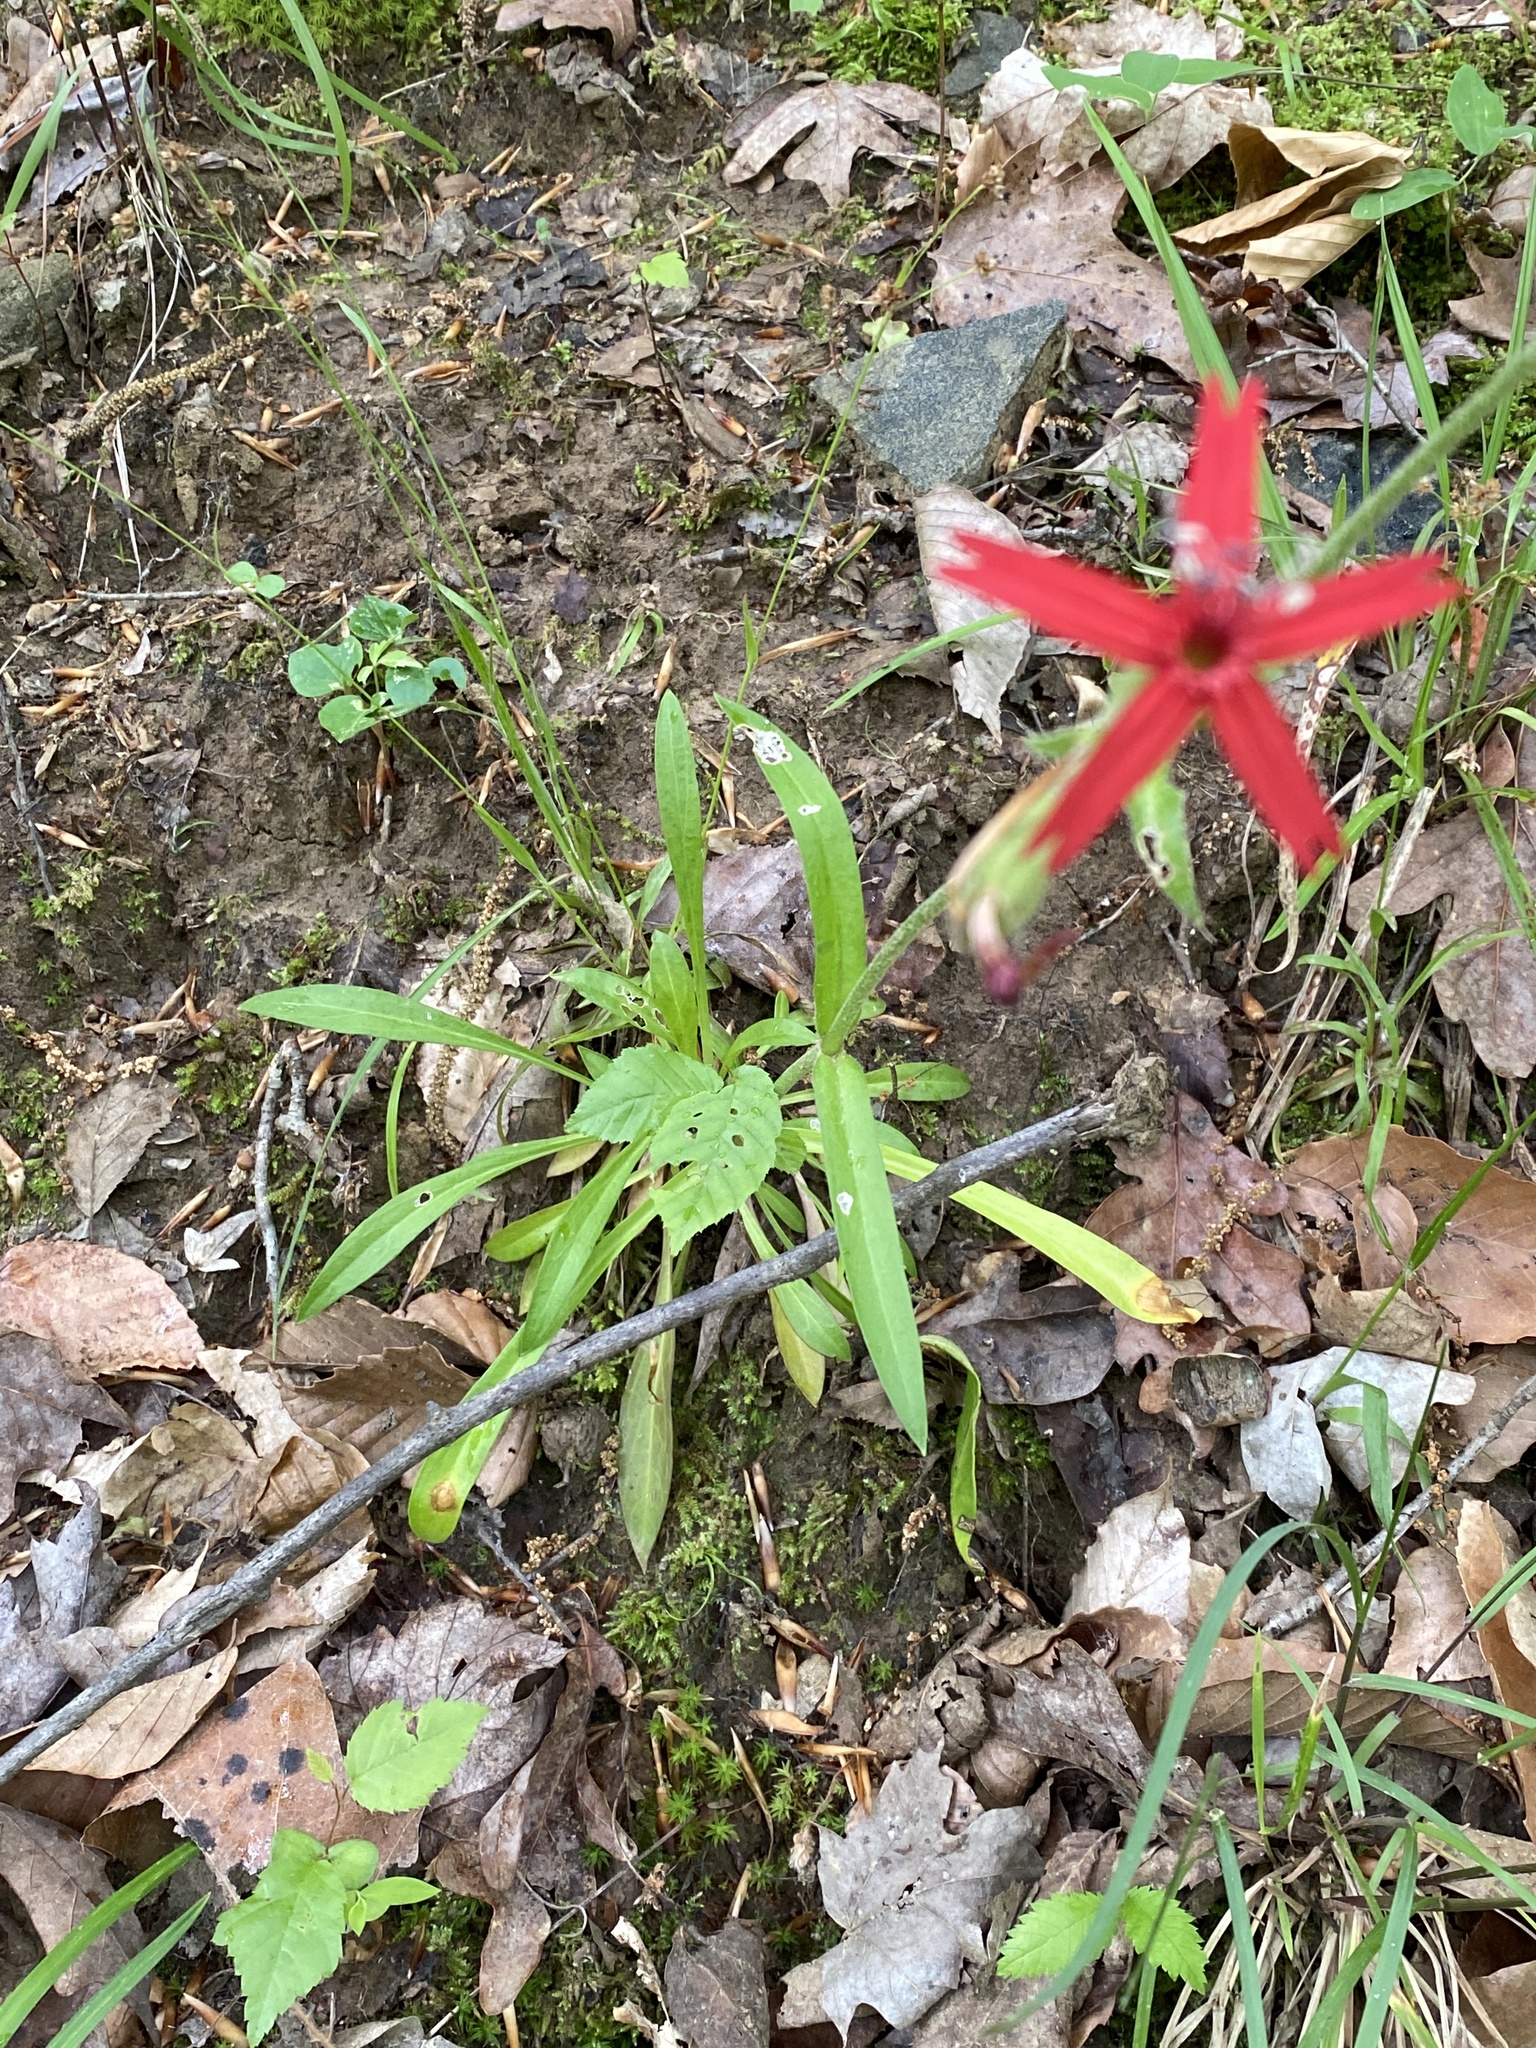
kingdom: Plantae
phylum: Tracheophyta
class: Magnoliopsida
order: Caryophyllales
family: Caryophyllaceae
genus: Silene
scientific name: Silene virginica
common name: Fire-pink
